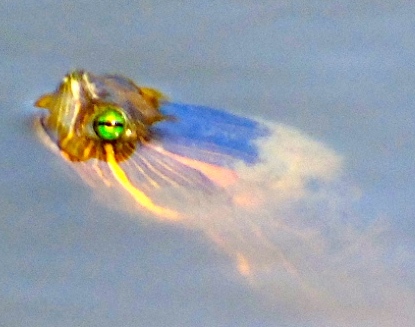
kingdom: Animalia
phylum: Chordata
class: Testudines
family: Emydidae
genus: Trachemys
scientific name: Trachemys ornata
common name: Ornate slider
